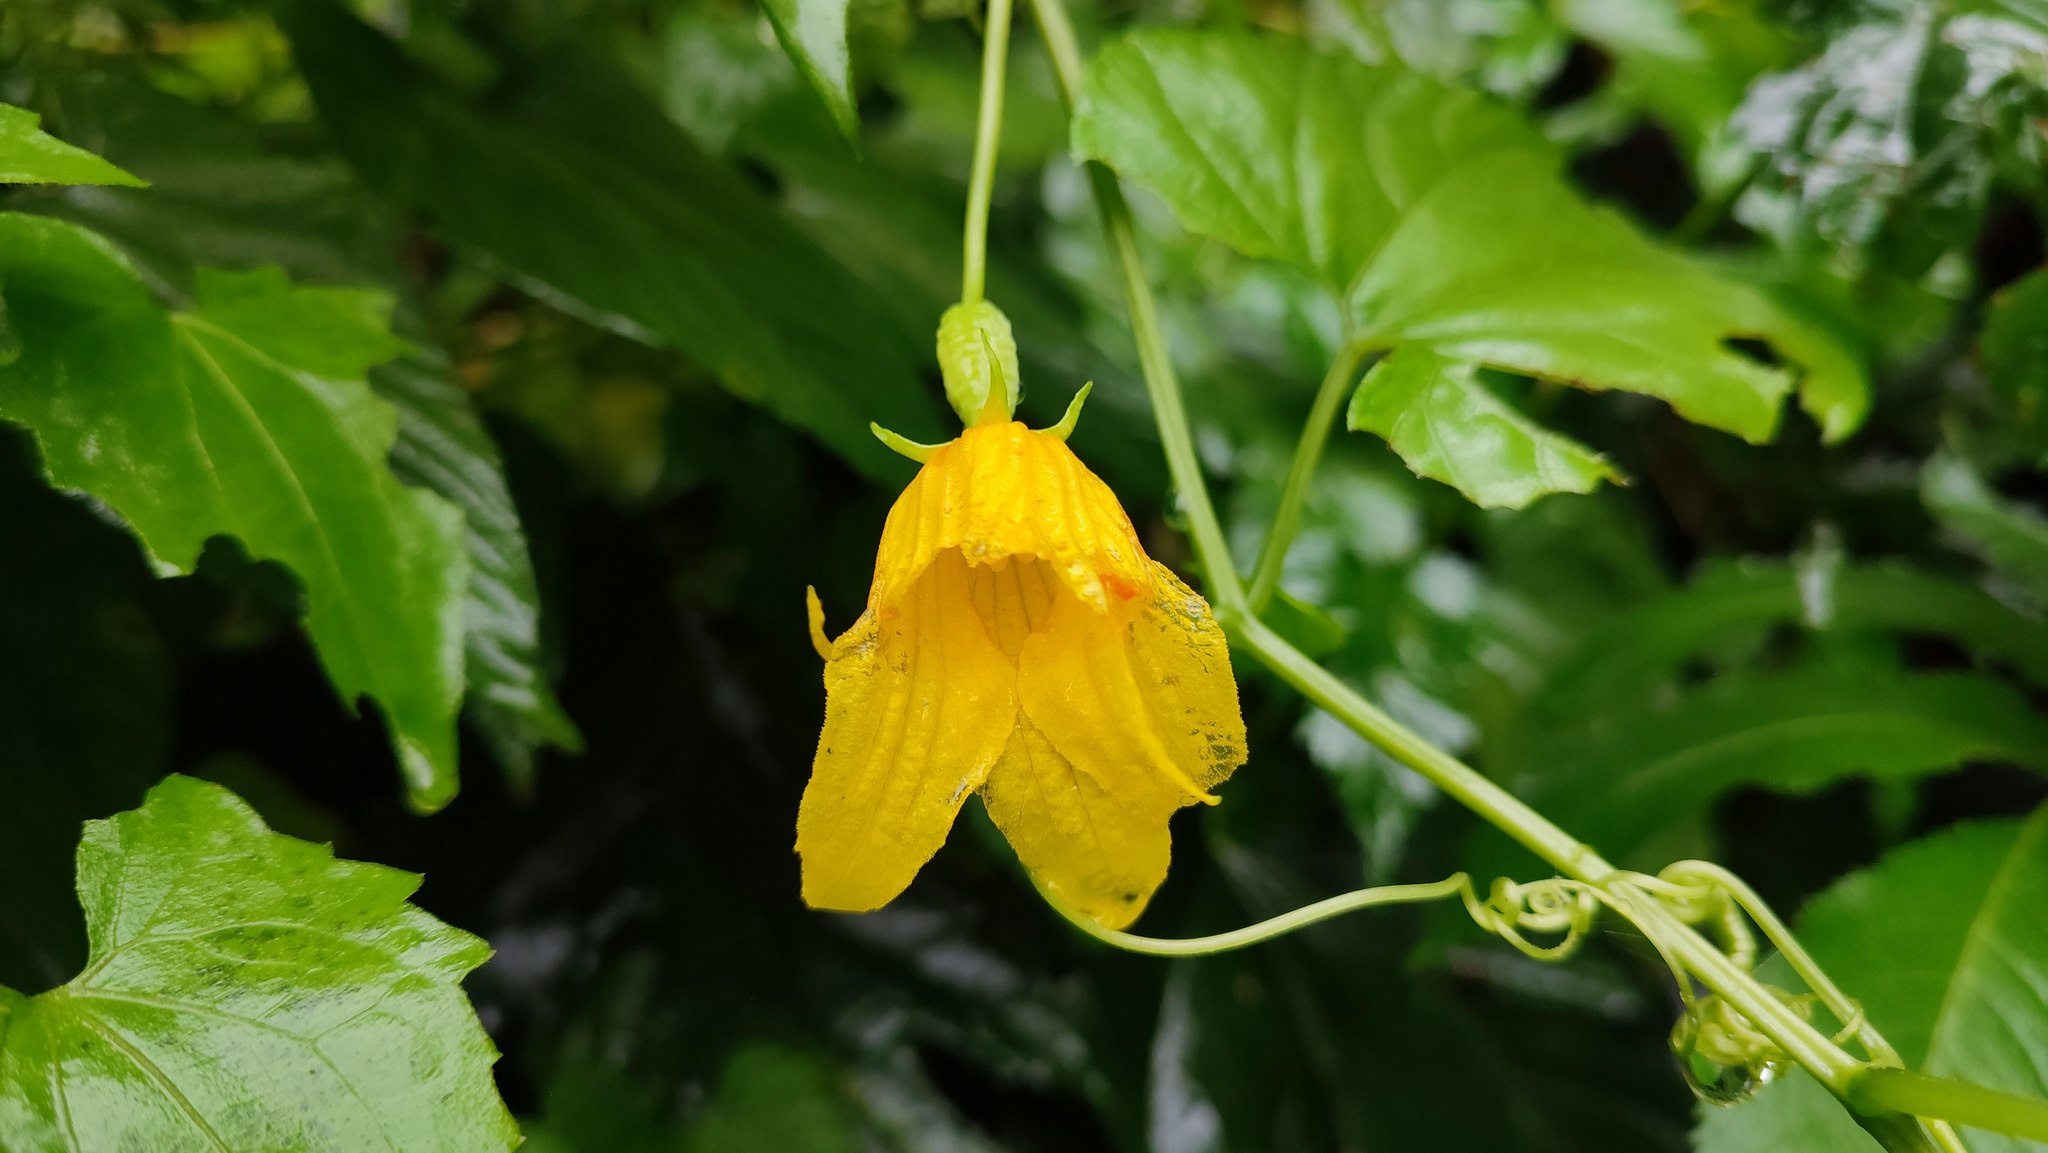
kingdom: Plantae
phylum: Tracheophyta
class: Magnoliopsida
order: Cucurbitales
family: Cucurbitaceae
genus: Thladiantha
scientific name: Thladiantha punctata
